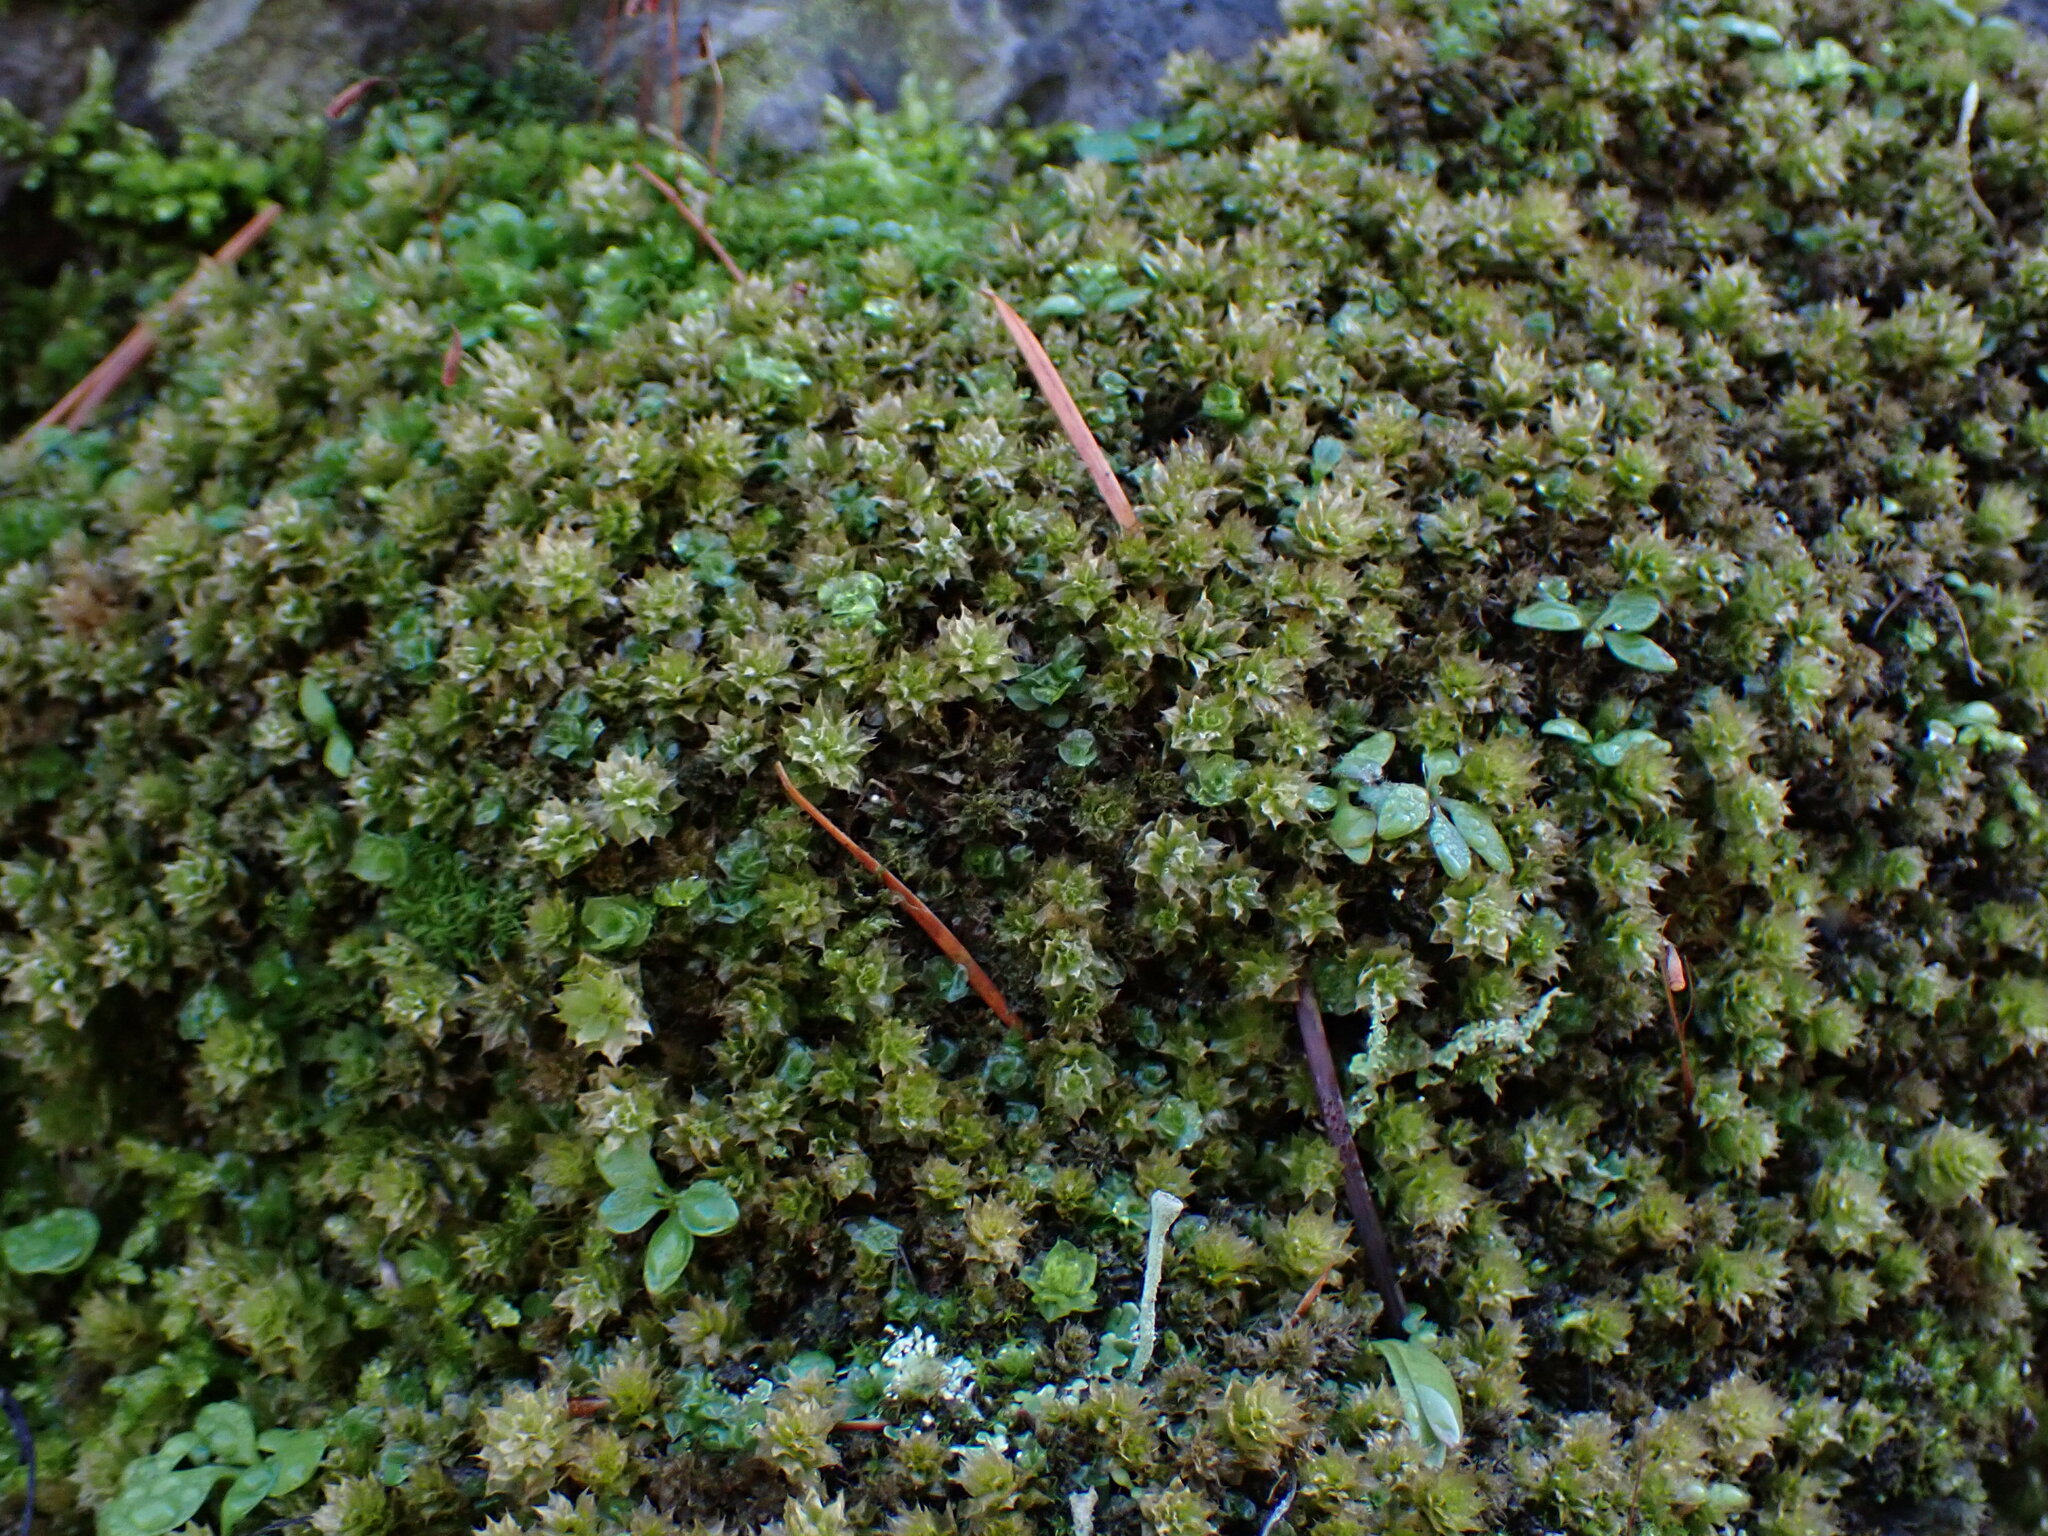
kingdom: Plantae
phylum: Bryophyta
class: Bryopsida
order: Bryales
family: Mniaceae
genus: Plagiomnium
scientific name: Plagiomnium venustum
